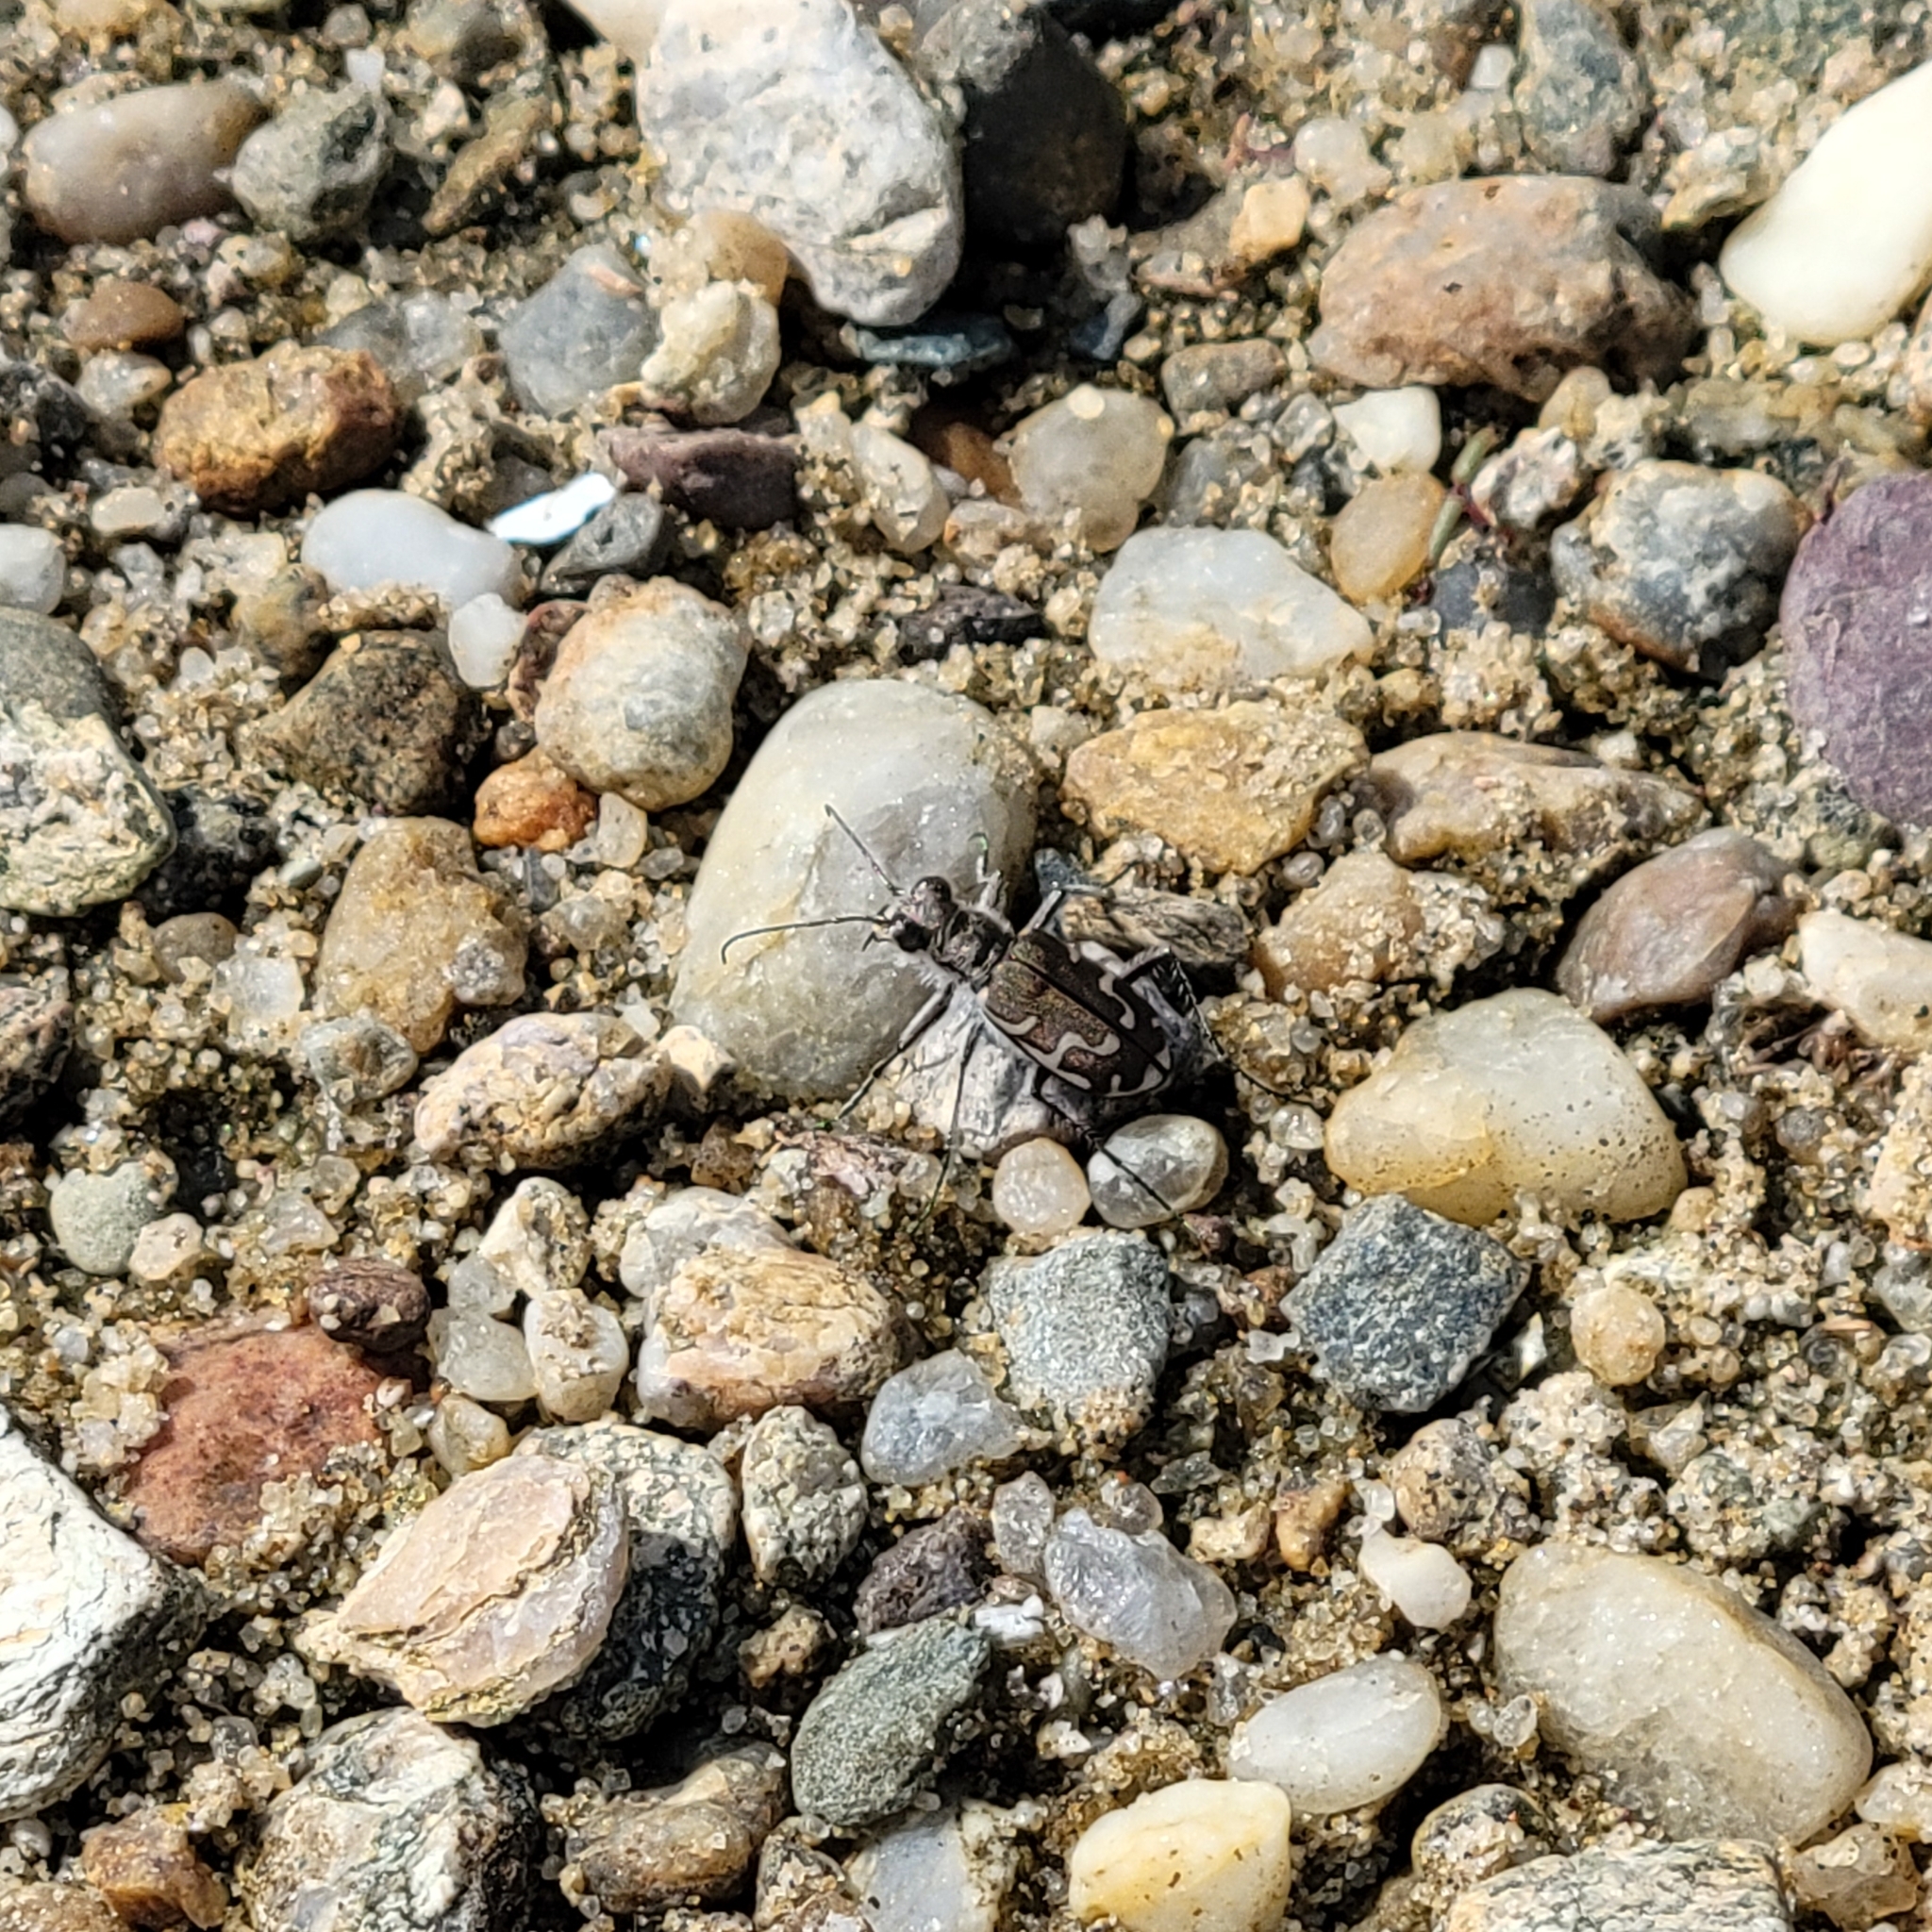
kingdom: Animalia
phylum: Arthropoda
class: Insecta
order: Coleoptera
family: Carabidae
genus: Cicindela
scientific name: Cicindela repanda
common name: Bronzed tiger beetle
